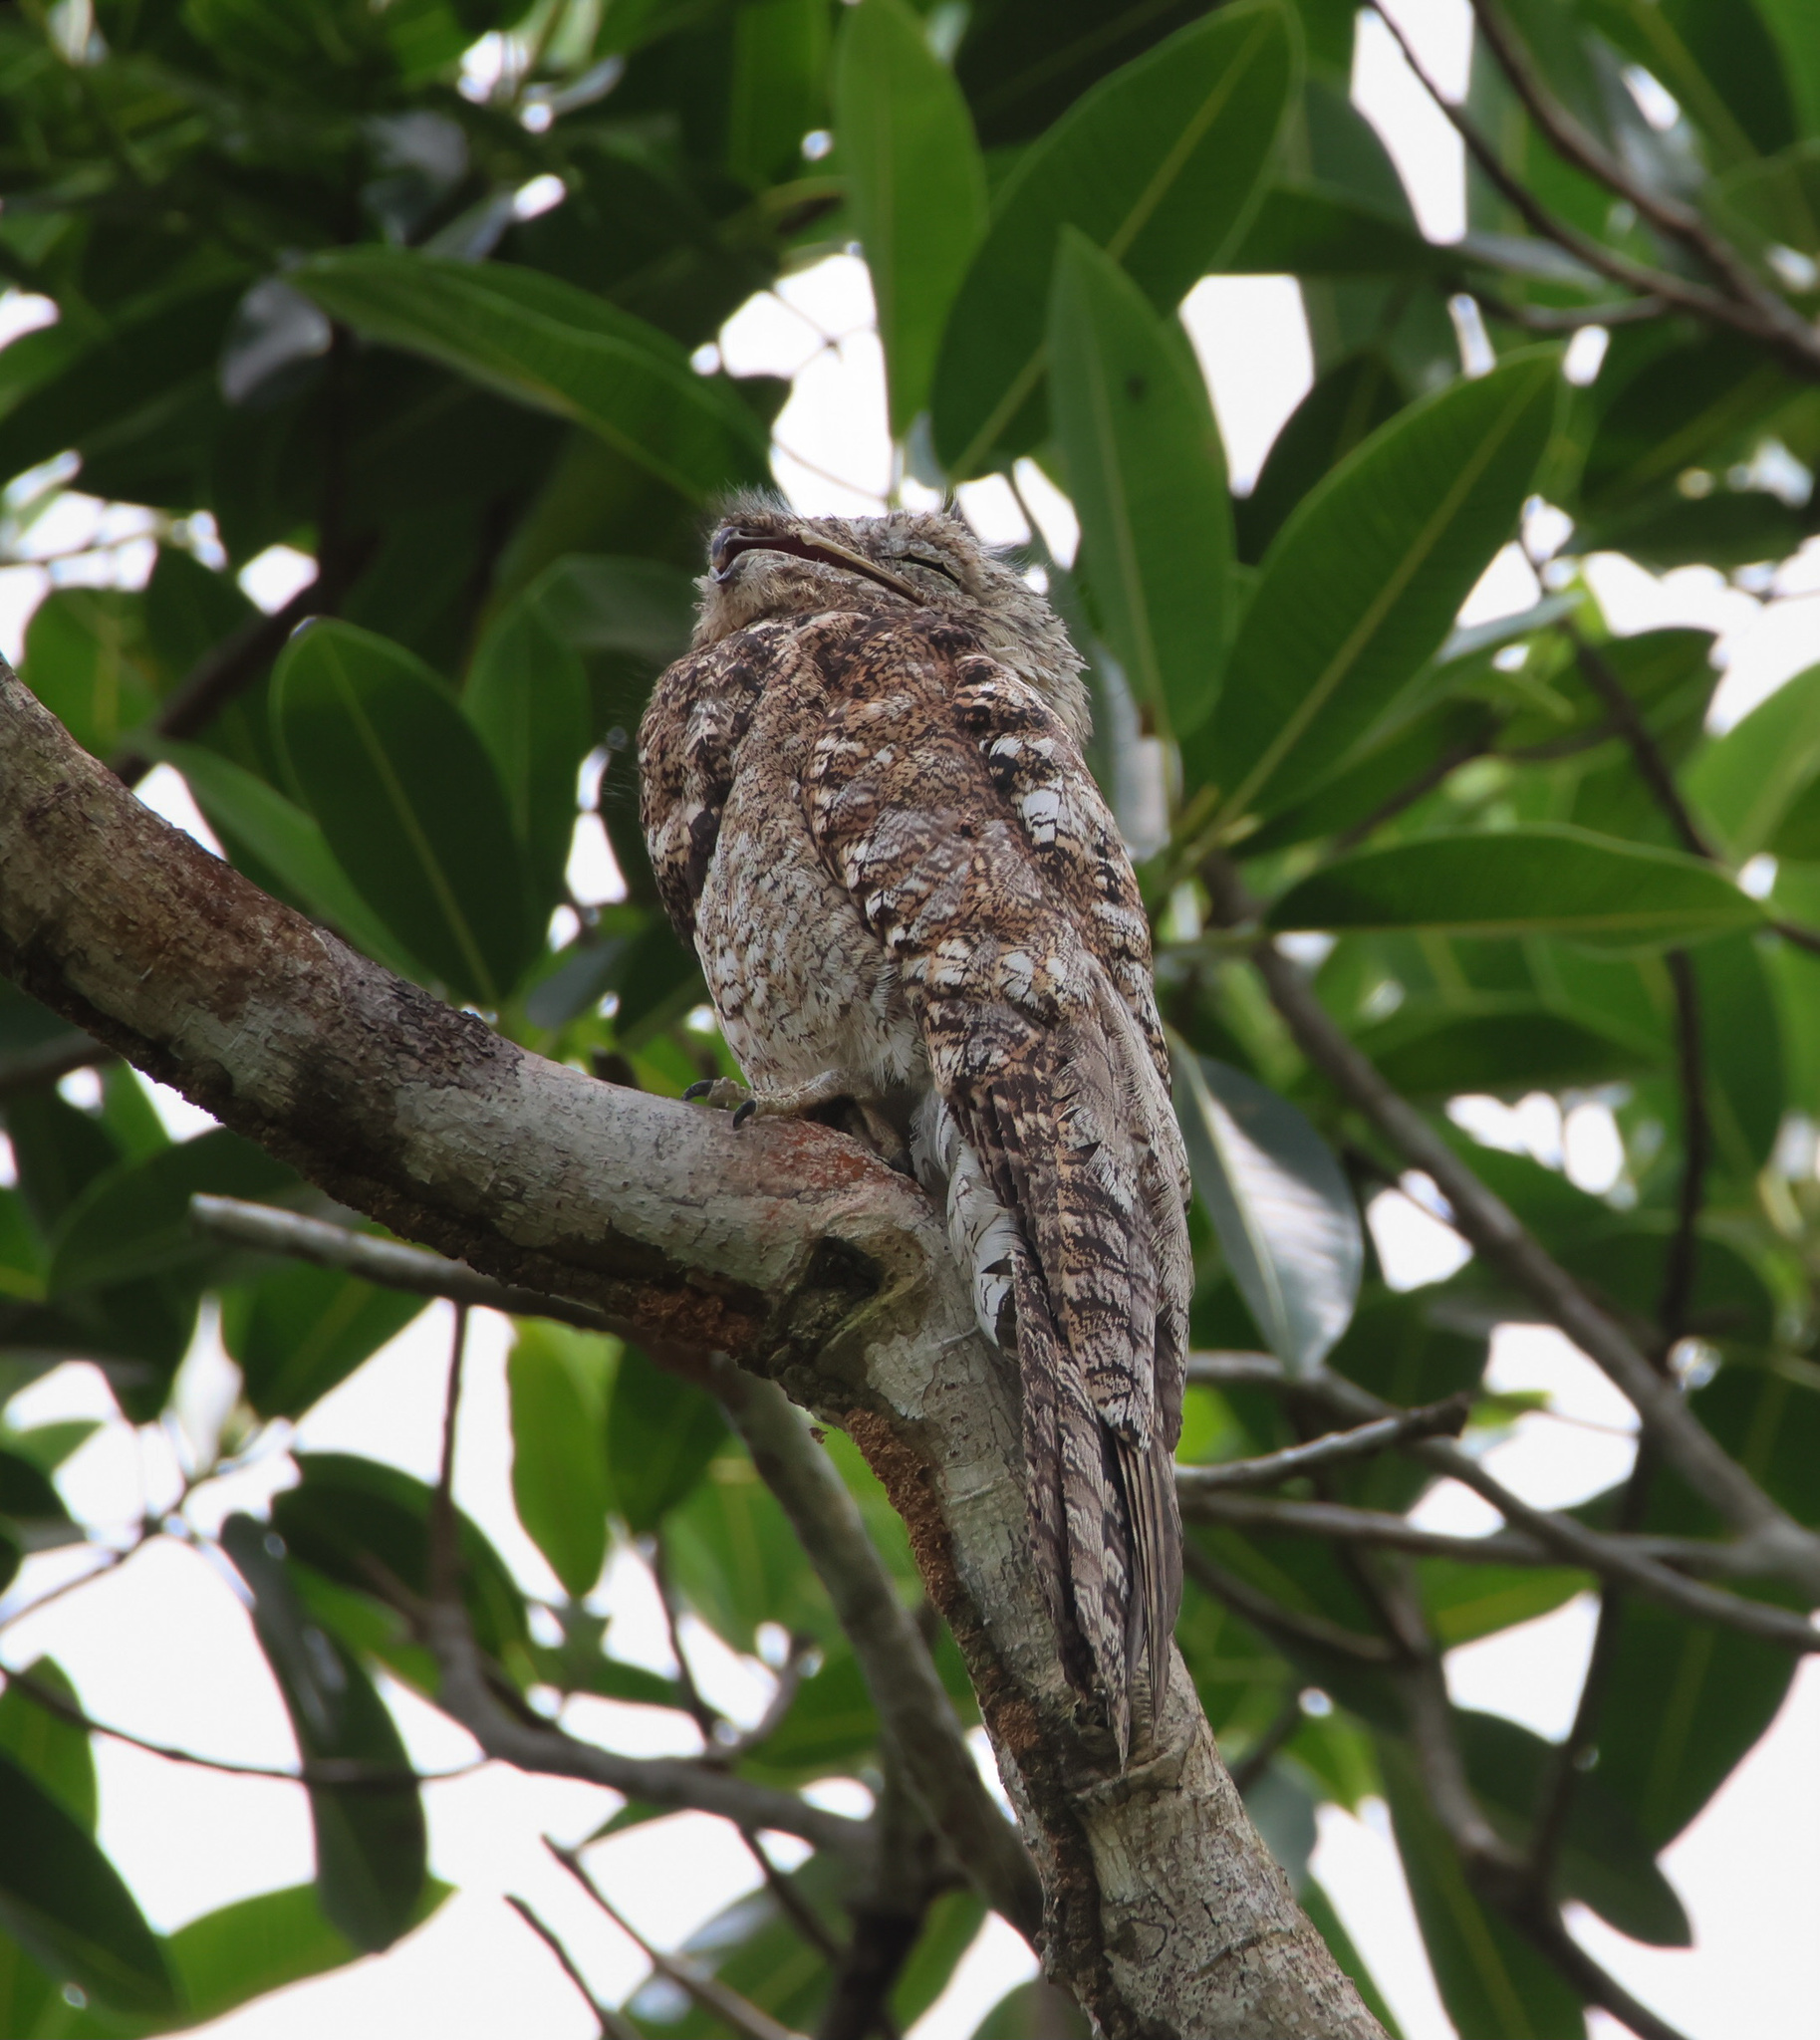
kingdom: Animalia
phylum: Chordata
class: Aves
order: Nyctibiiformes
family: Nyctibiidae
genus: Nyctibius
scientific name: Nyctibius grandis
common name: Great potoo
